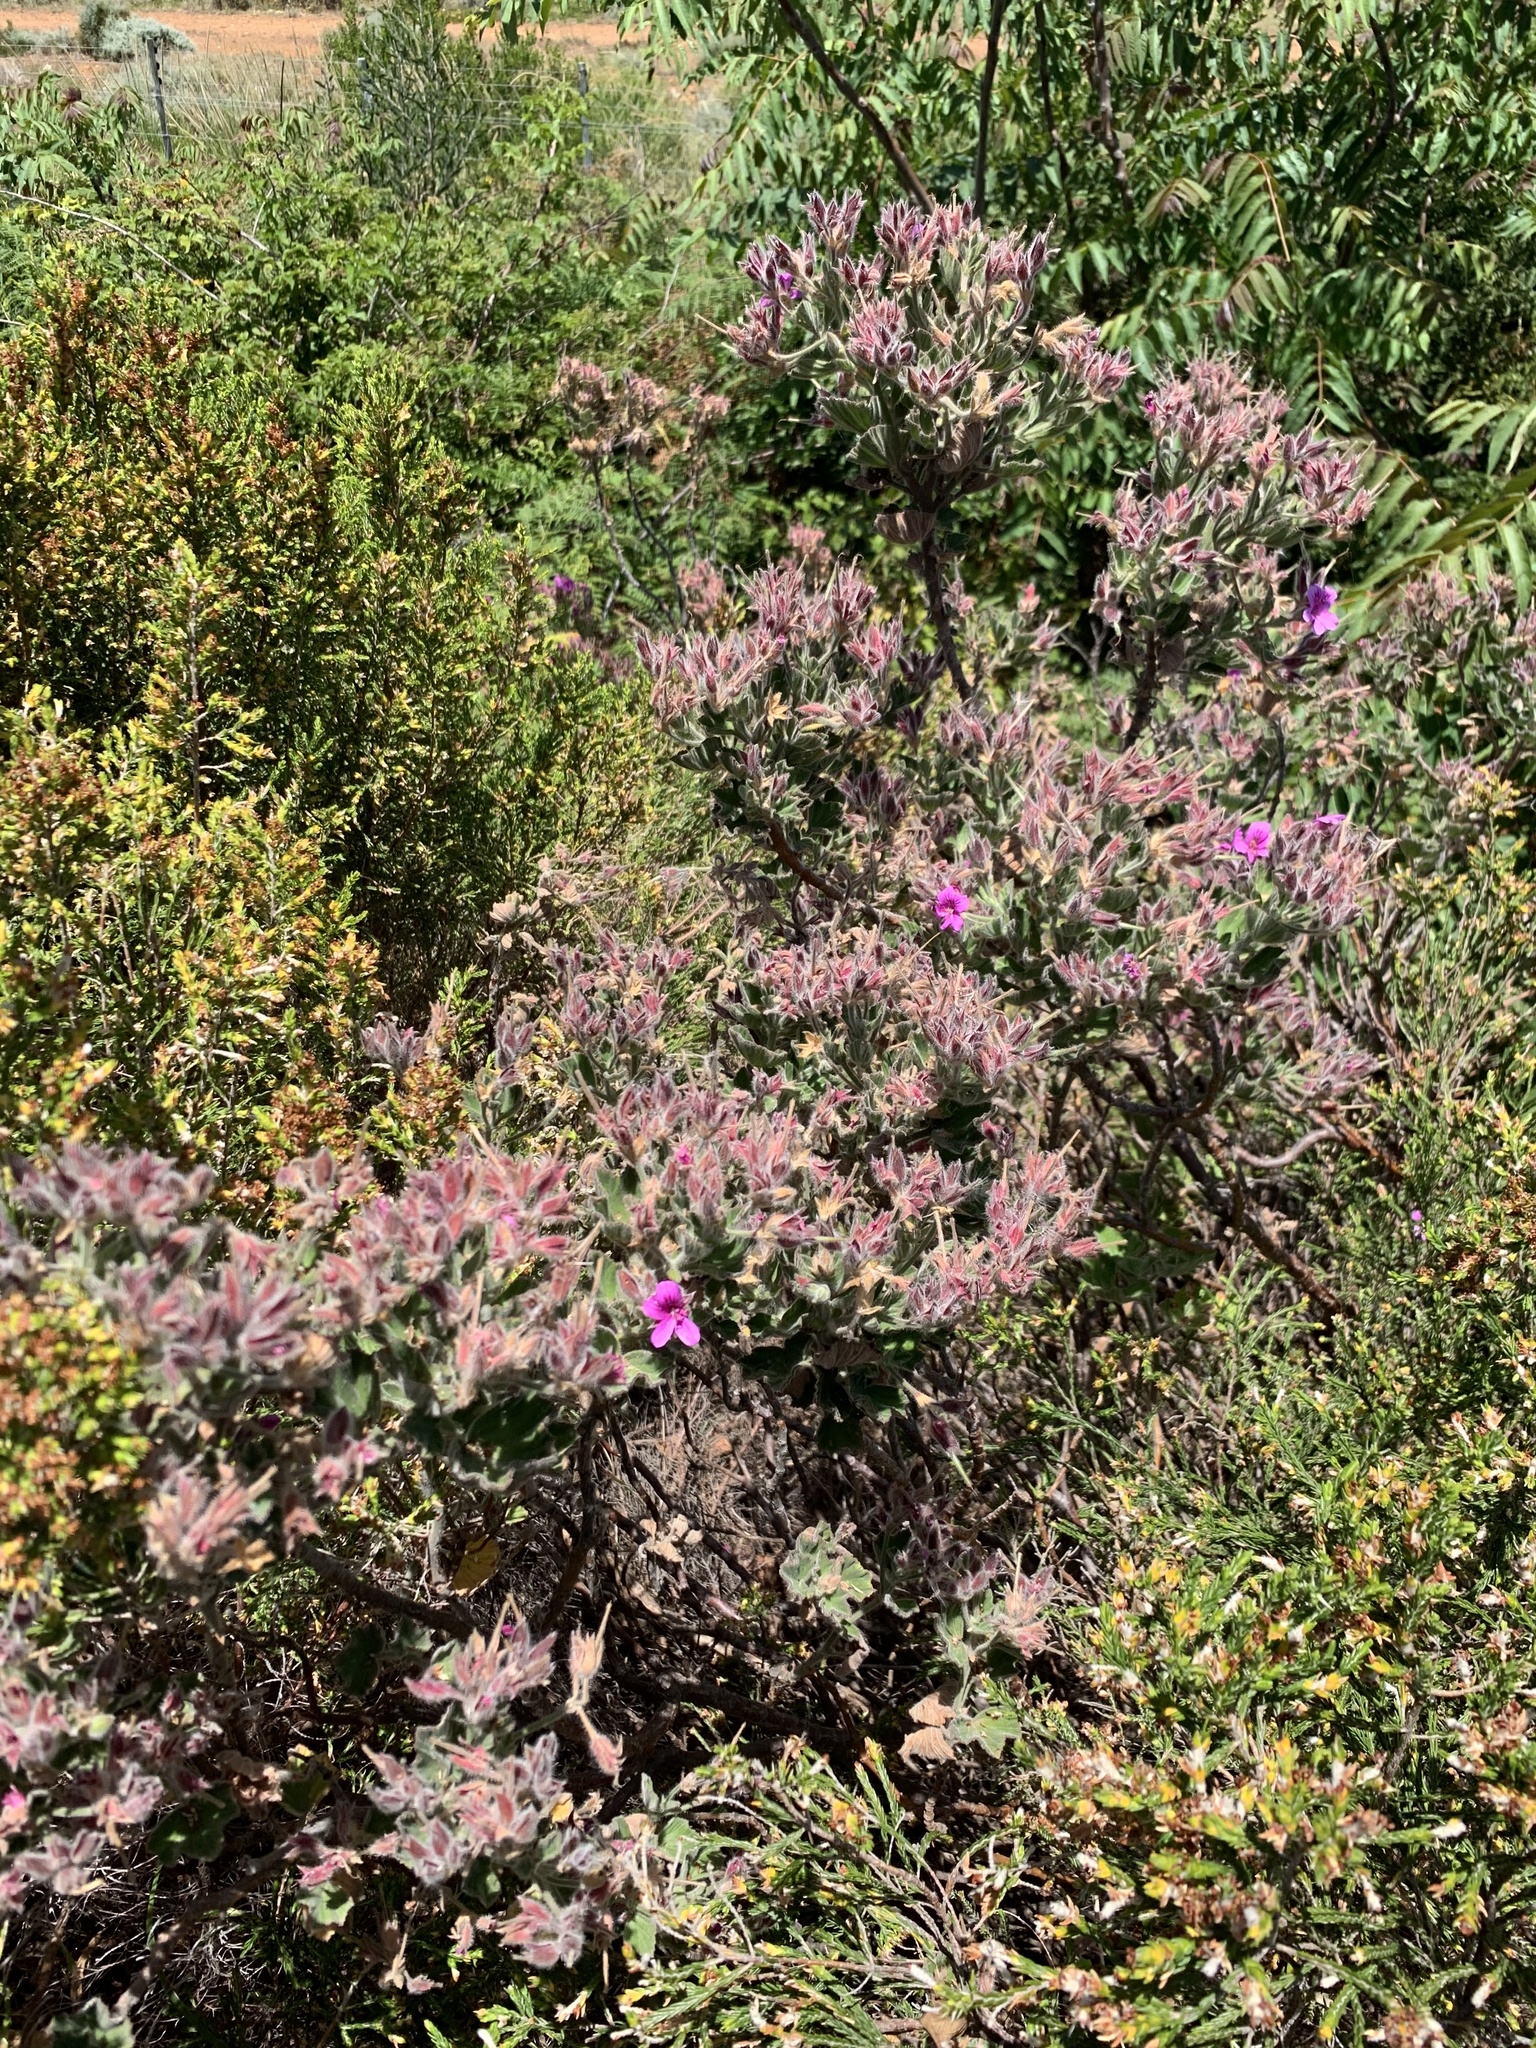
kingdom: Plantae
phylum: Tracheophyta
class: Magnoliopsida
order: Geraniales
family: Geraniaceae
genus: Pelargonium
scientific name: Pelargonium cucullatum
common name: Tree pelargonium
